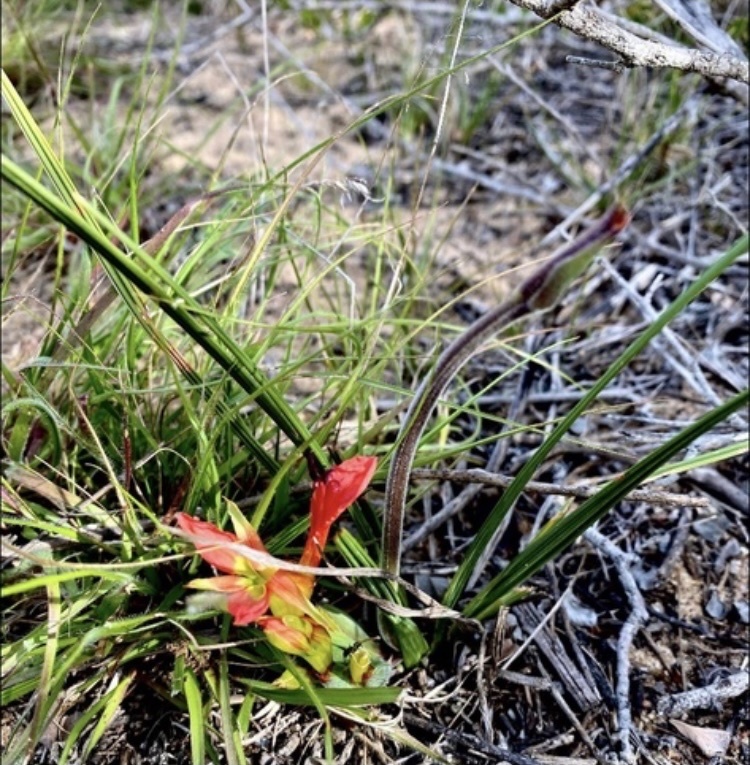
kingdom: Plantae
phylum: Tracheophyta
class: Liliopsida
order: Asparagales
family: Iridaceae
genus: Babiana
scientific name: Babiana ringens
